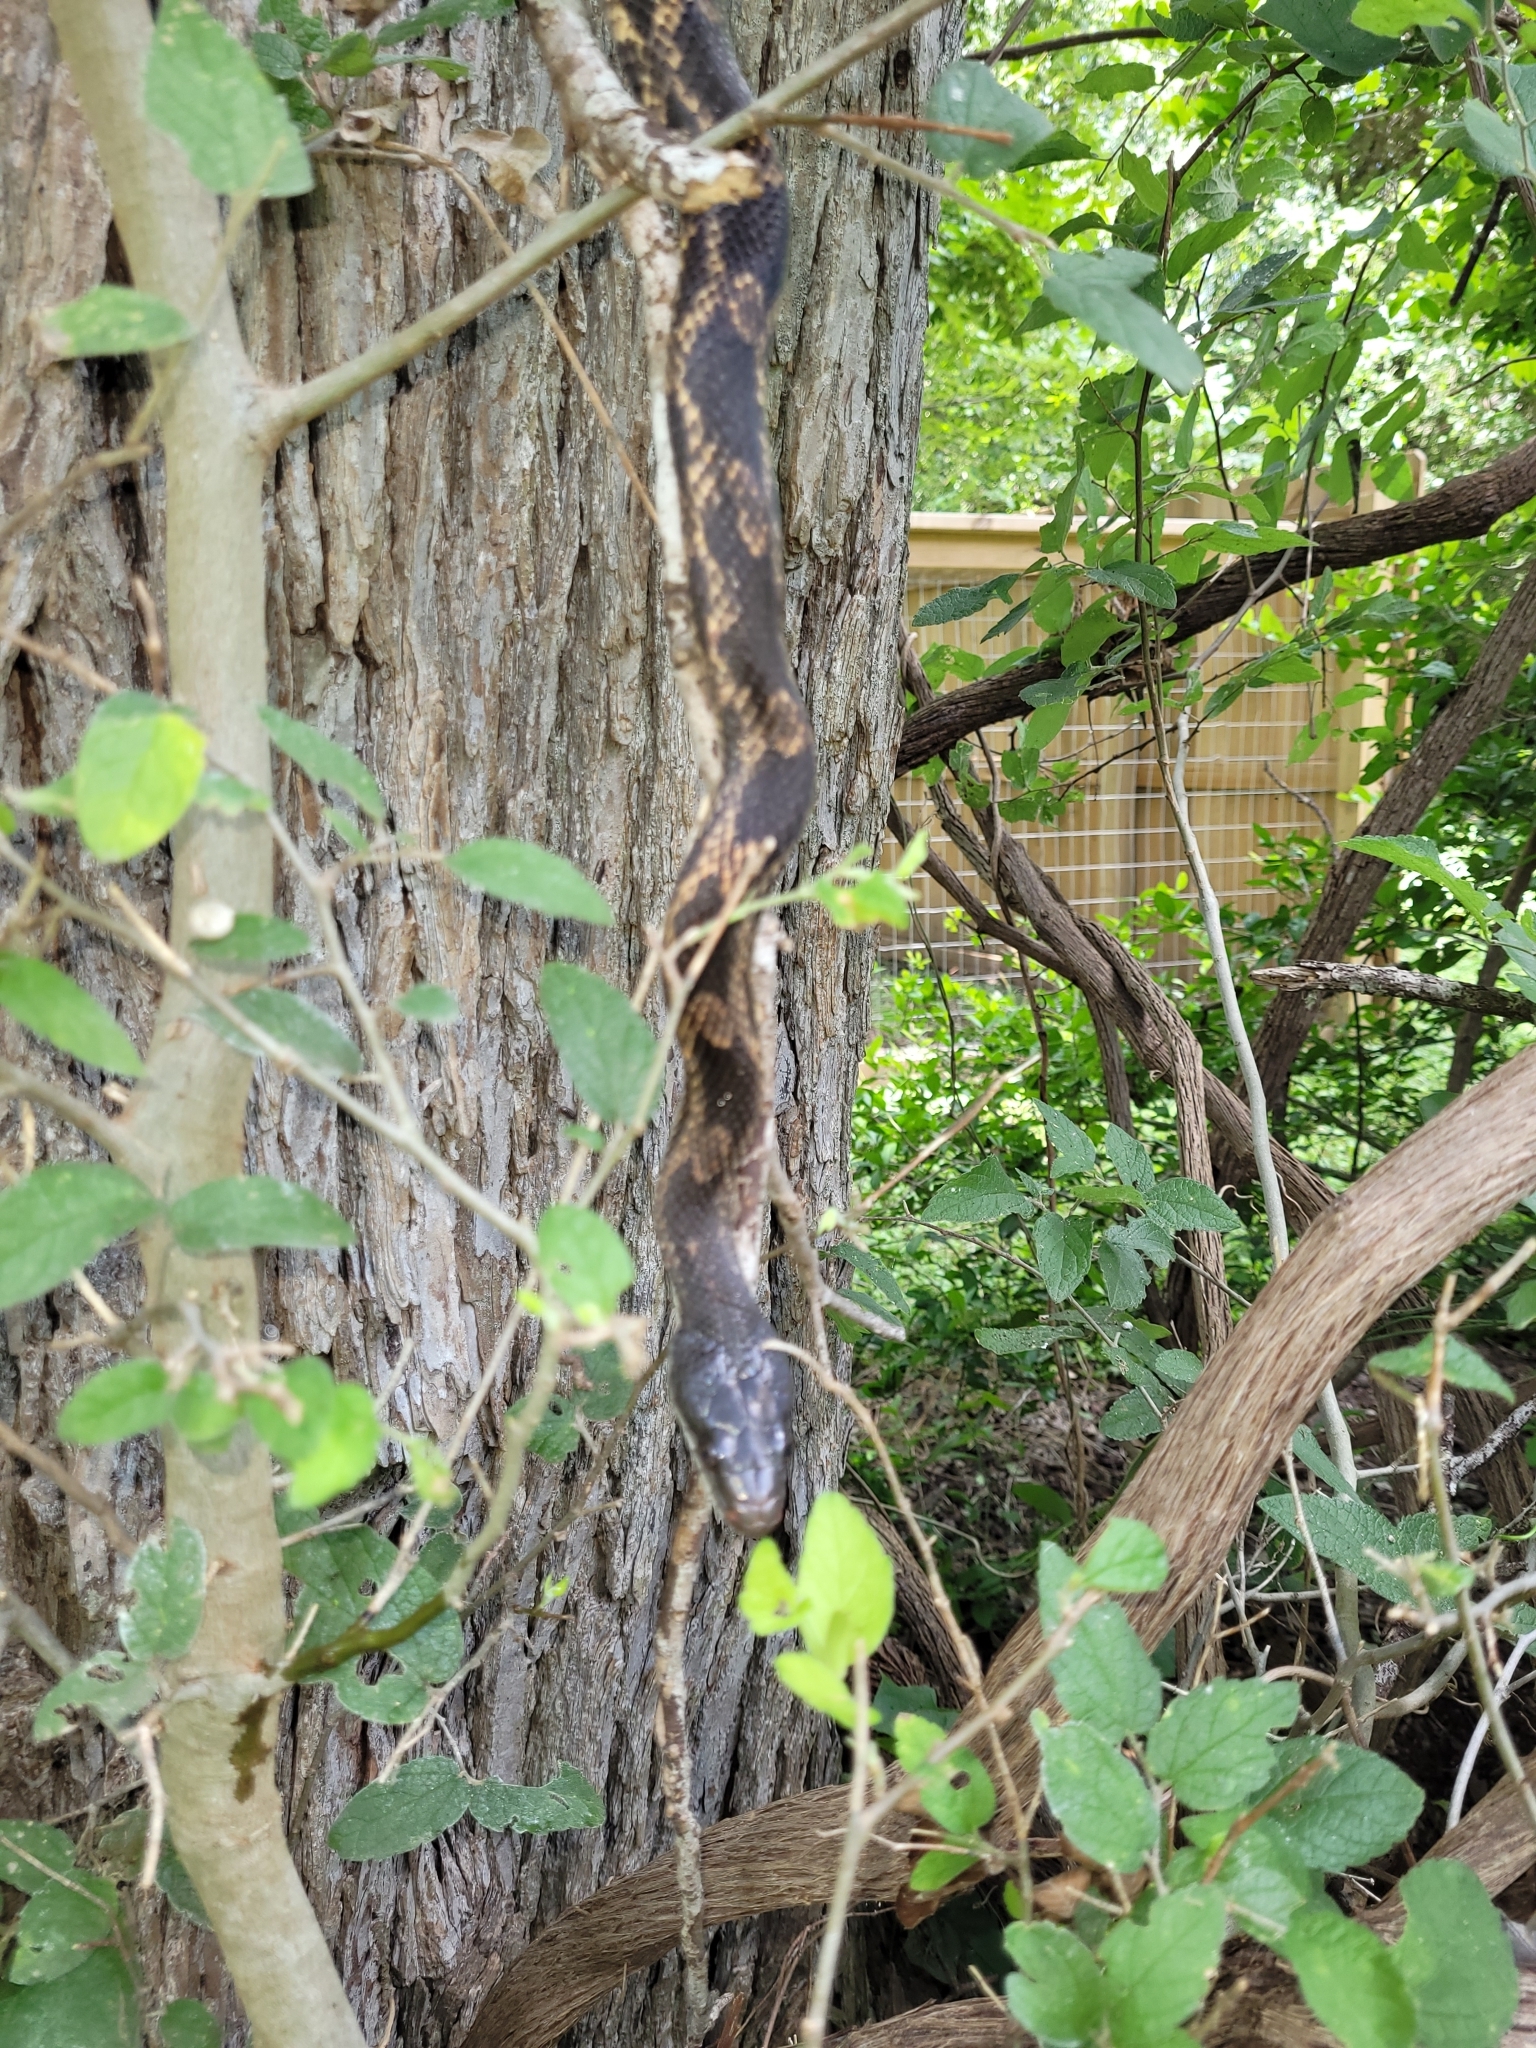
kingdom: Animalia
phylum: Chordata
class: Squamata
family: Colubridae
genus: Pantherophis
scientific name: Pantherophis obsoletus
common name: Black rat snake
